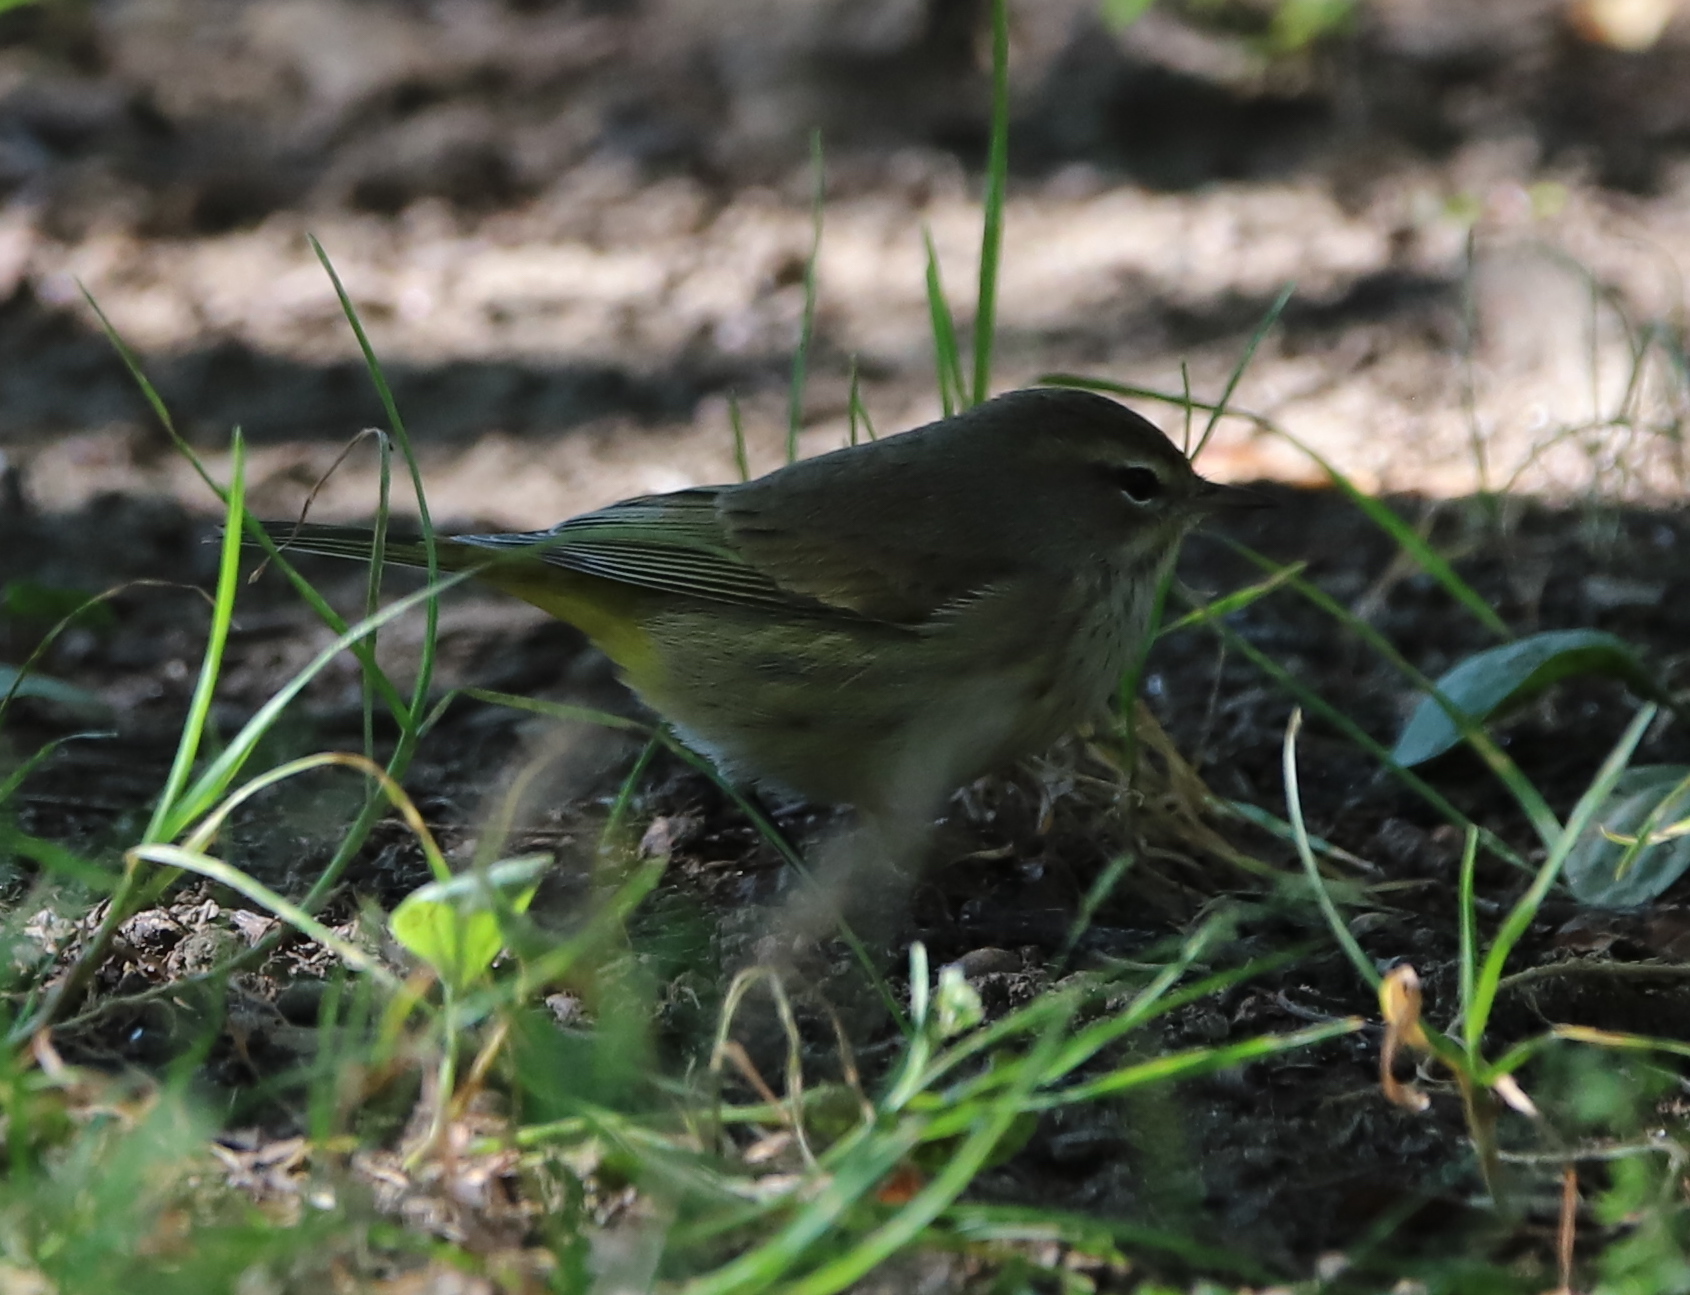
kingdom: Animalia
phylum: Chordata
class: Aves
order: Passeriformes
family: Parulidae
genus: Setophaga
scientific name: Setophaga palmarum
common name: Palm warbler
